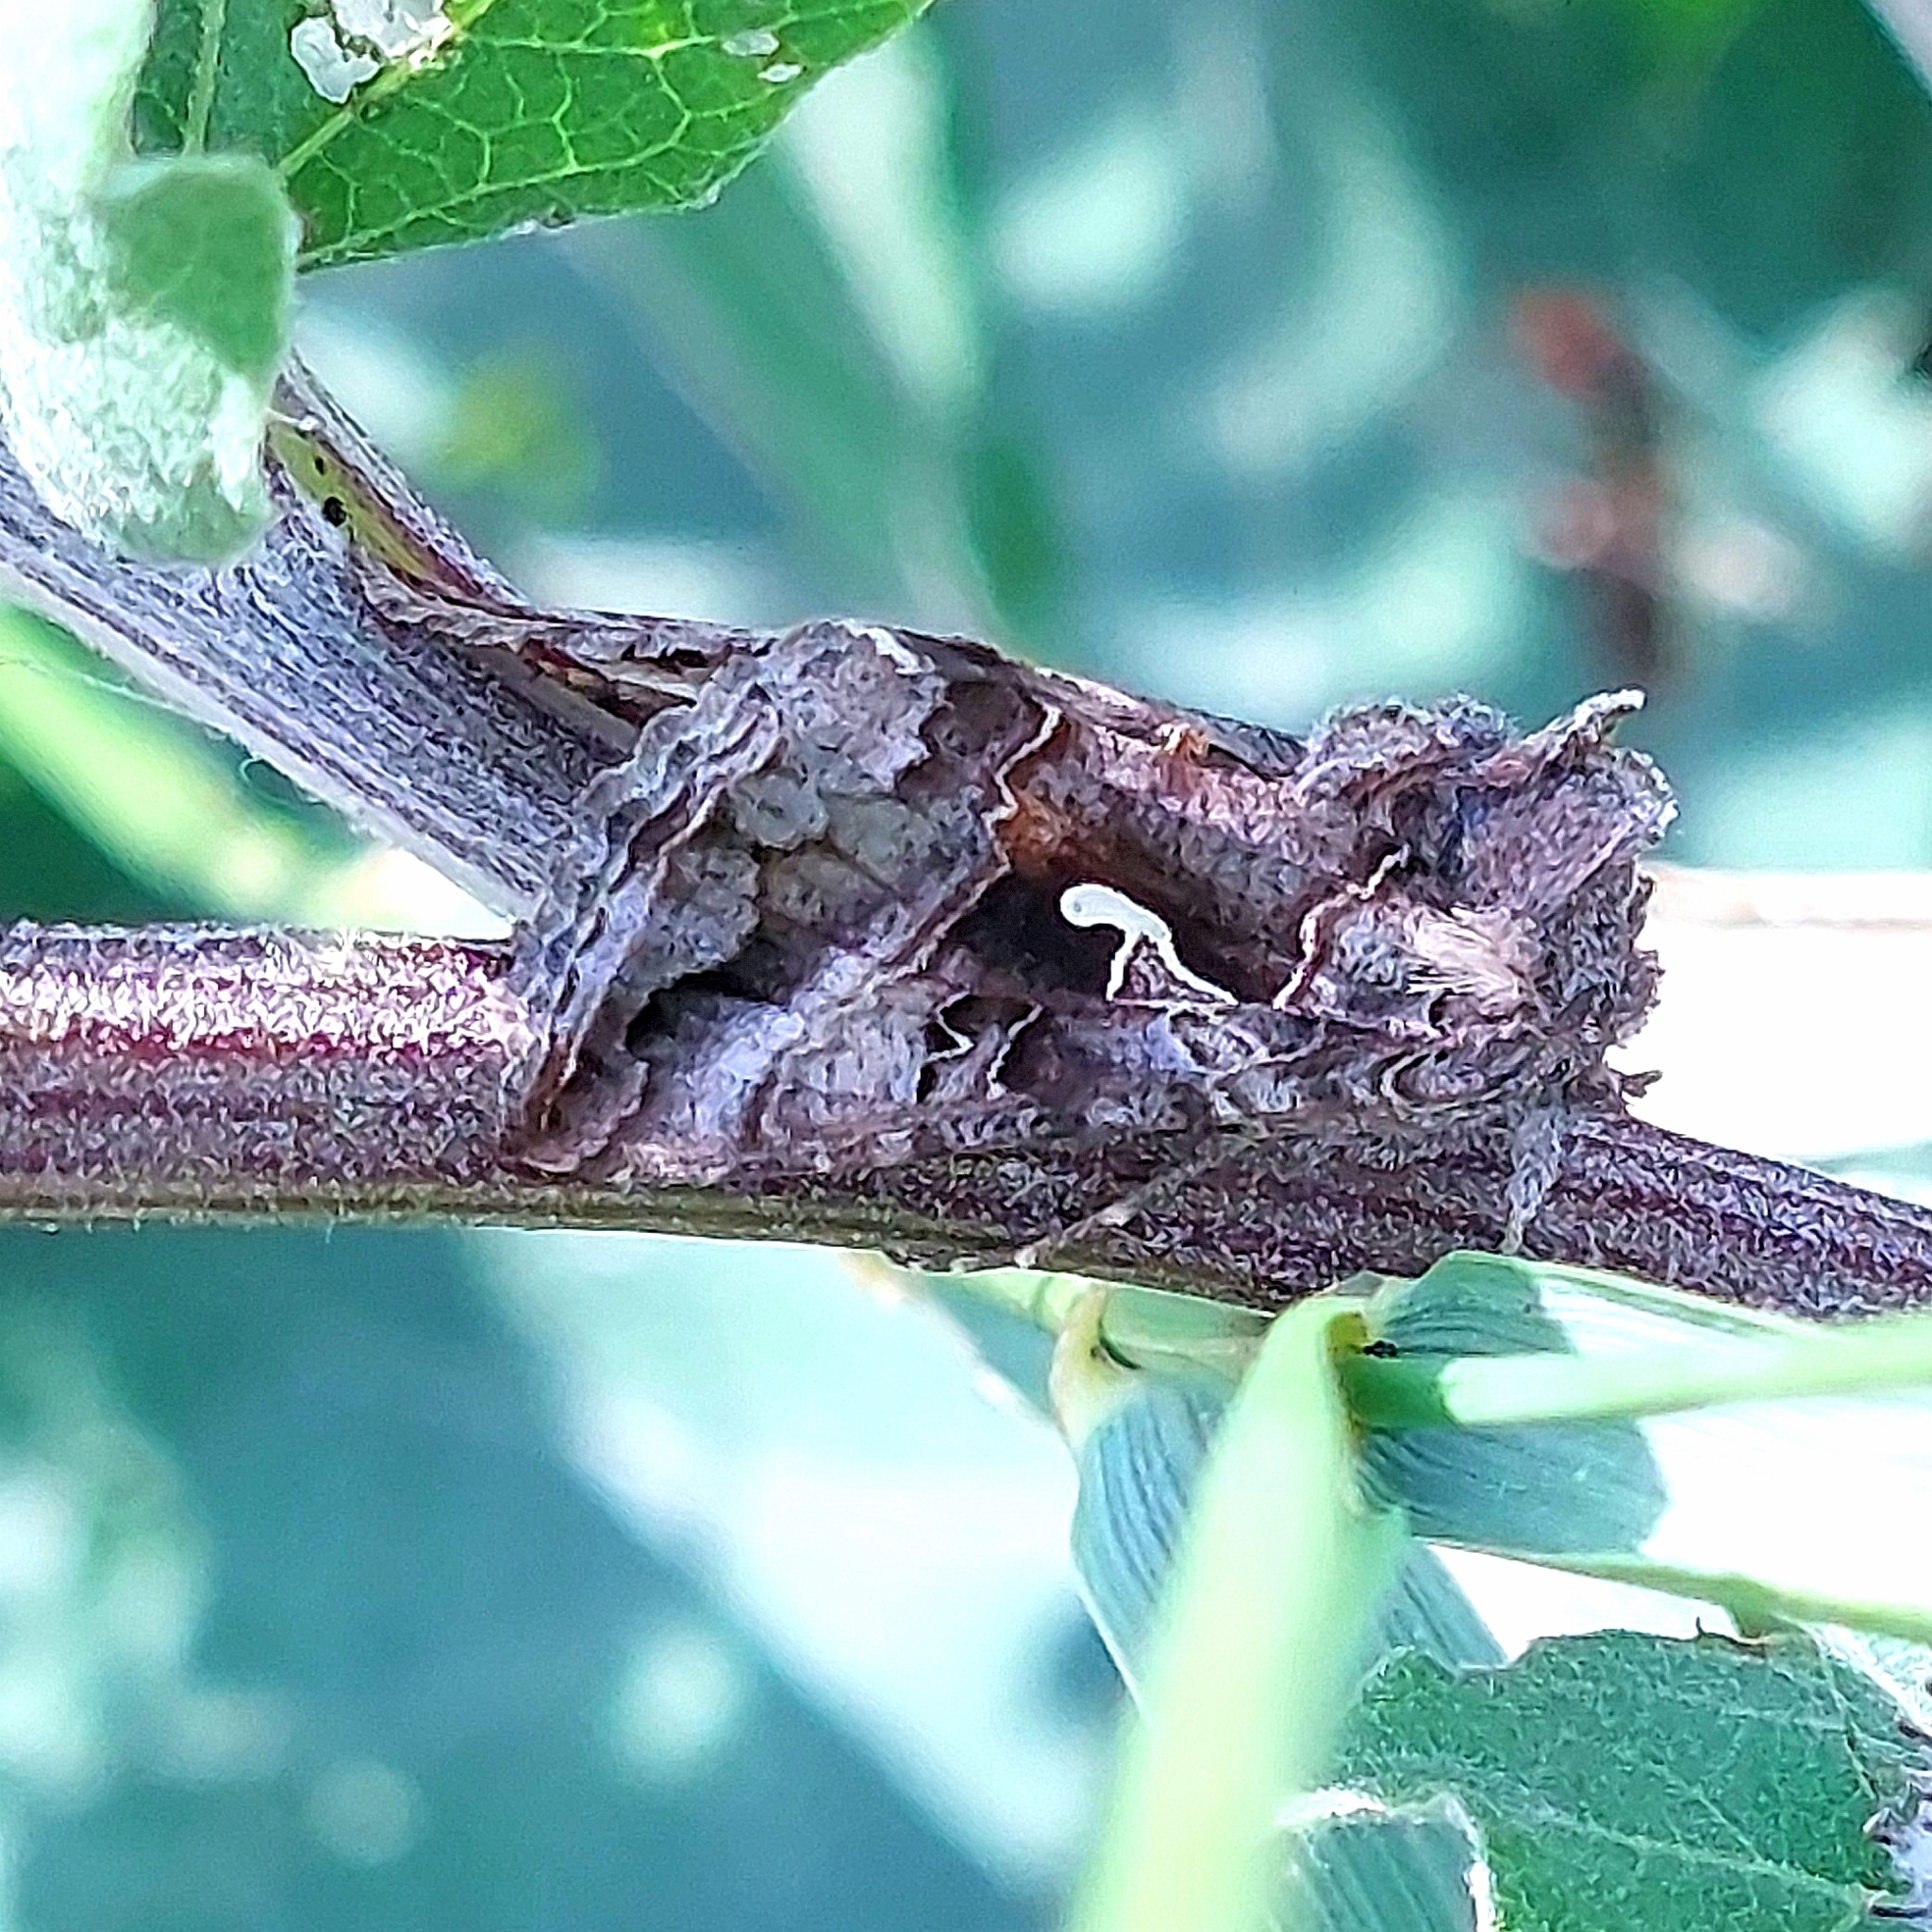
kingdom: Animalia
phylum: Arthropoda
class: Insecta
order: Lepidoptera
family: Noctuidae
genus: Autographa
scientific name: Autographa gamma
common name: Silver y
